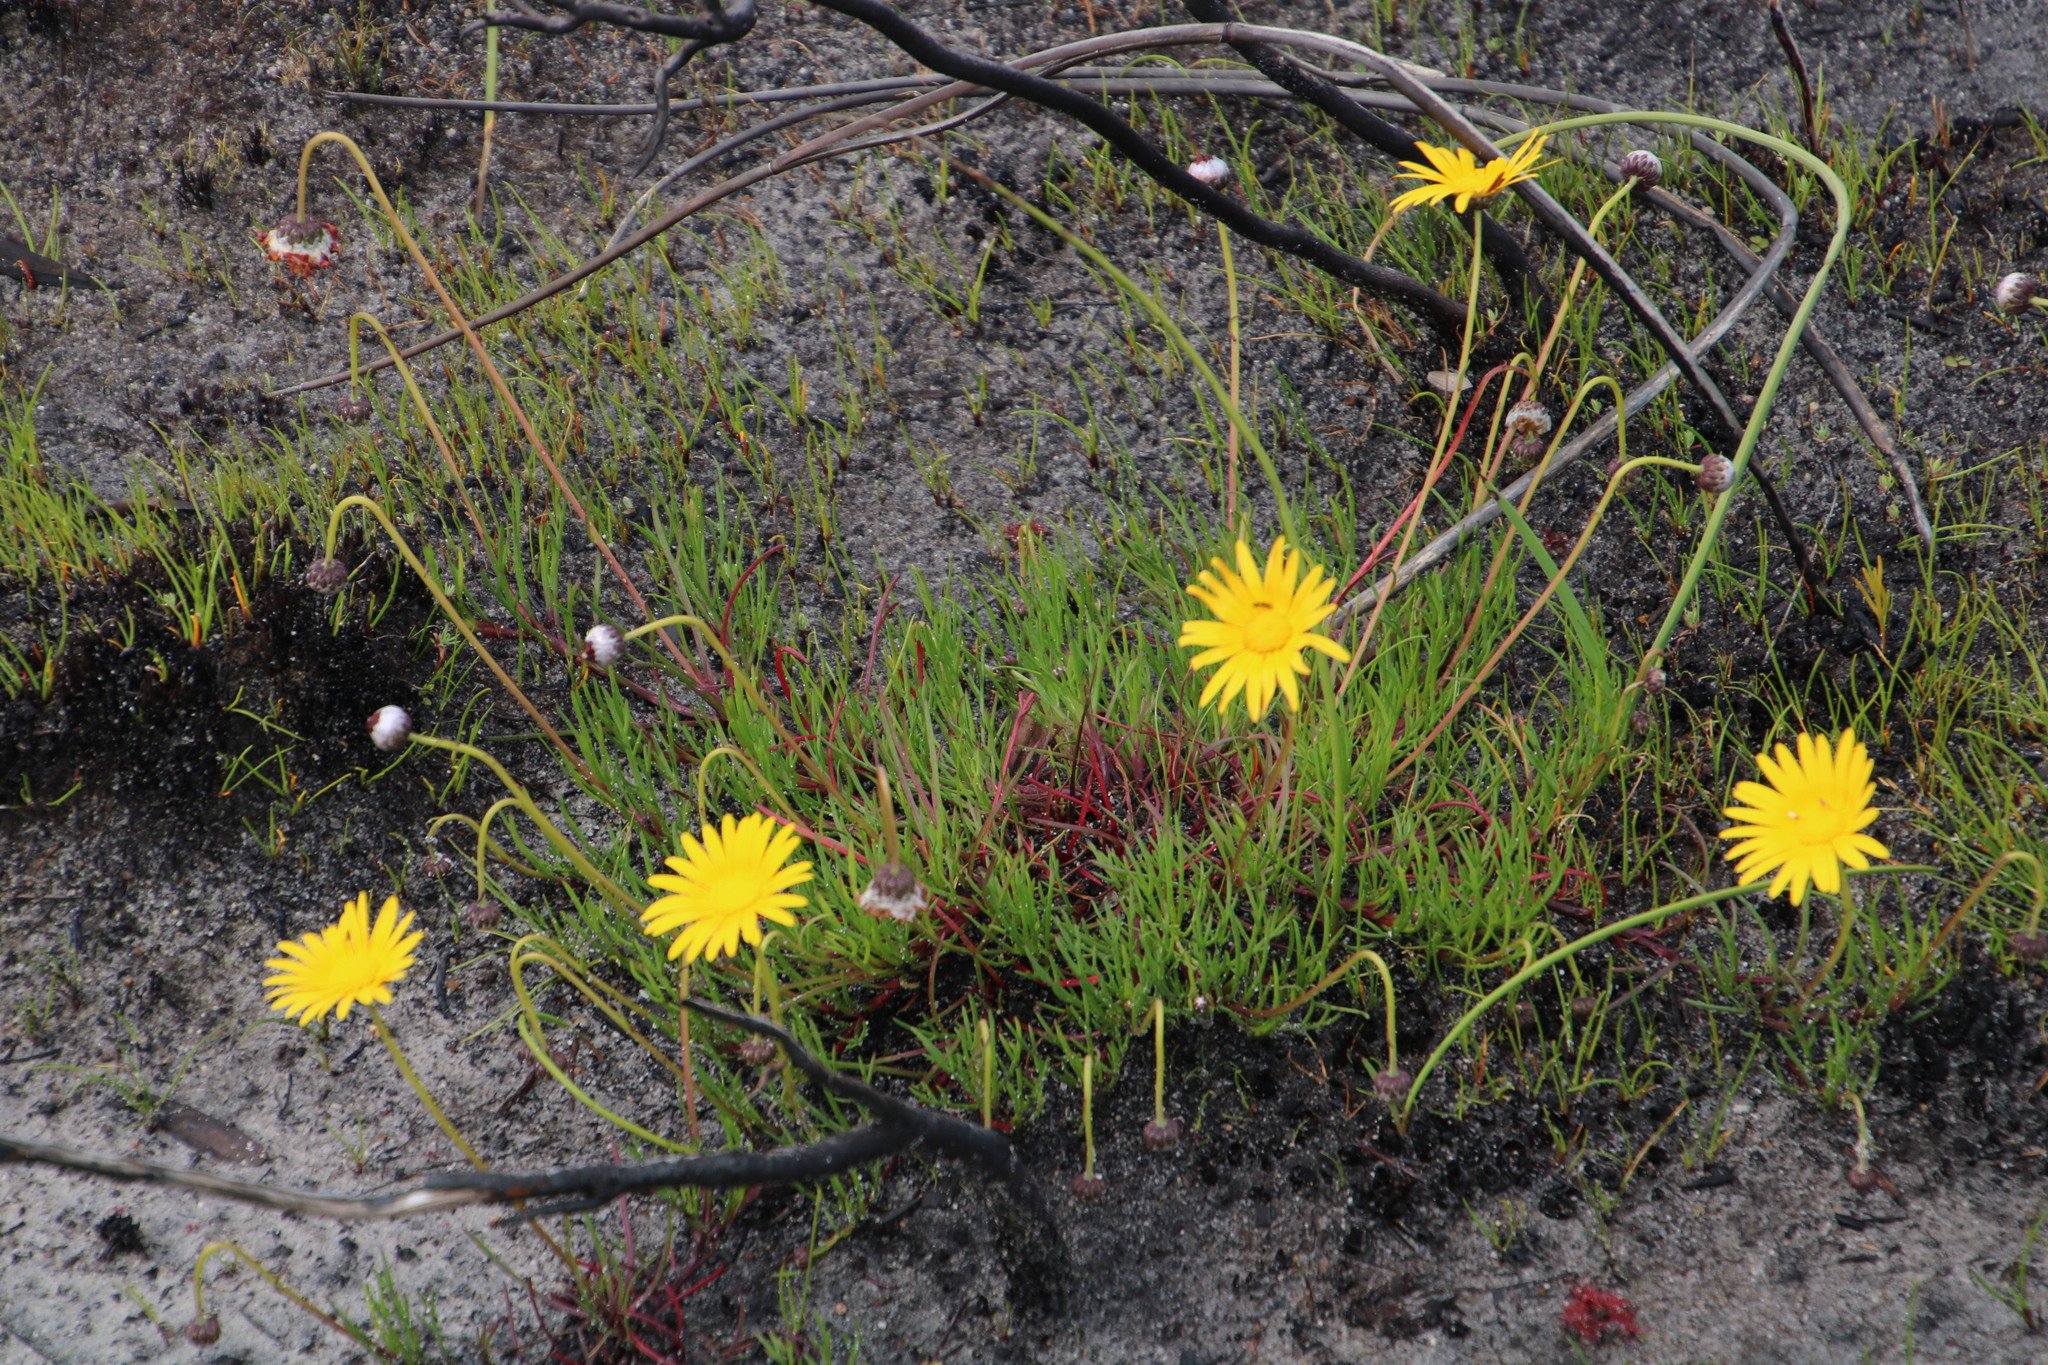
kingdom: Plantae
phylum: Tracheophyta
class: Magnoliopsida
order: Asterales
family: Asteraceae
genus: Ursinia
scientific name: Ursinia tenuifolia
